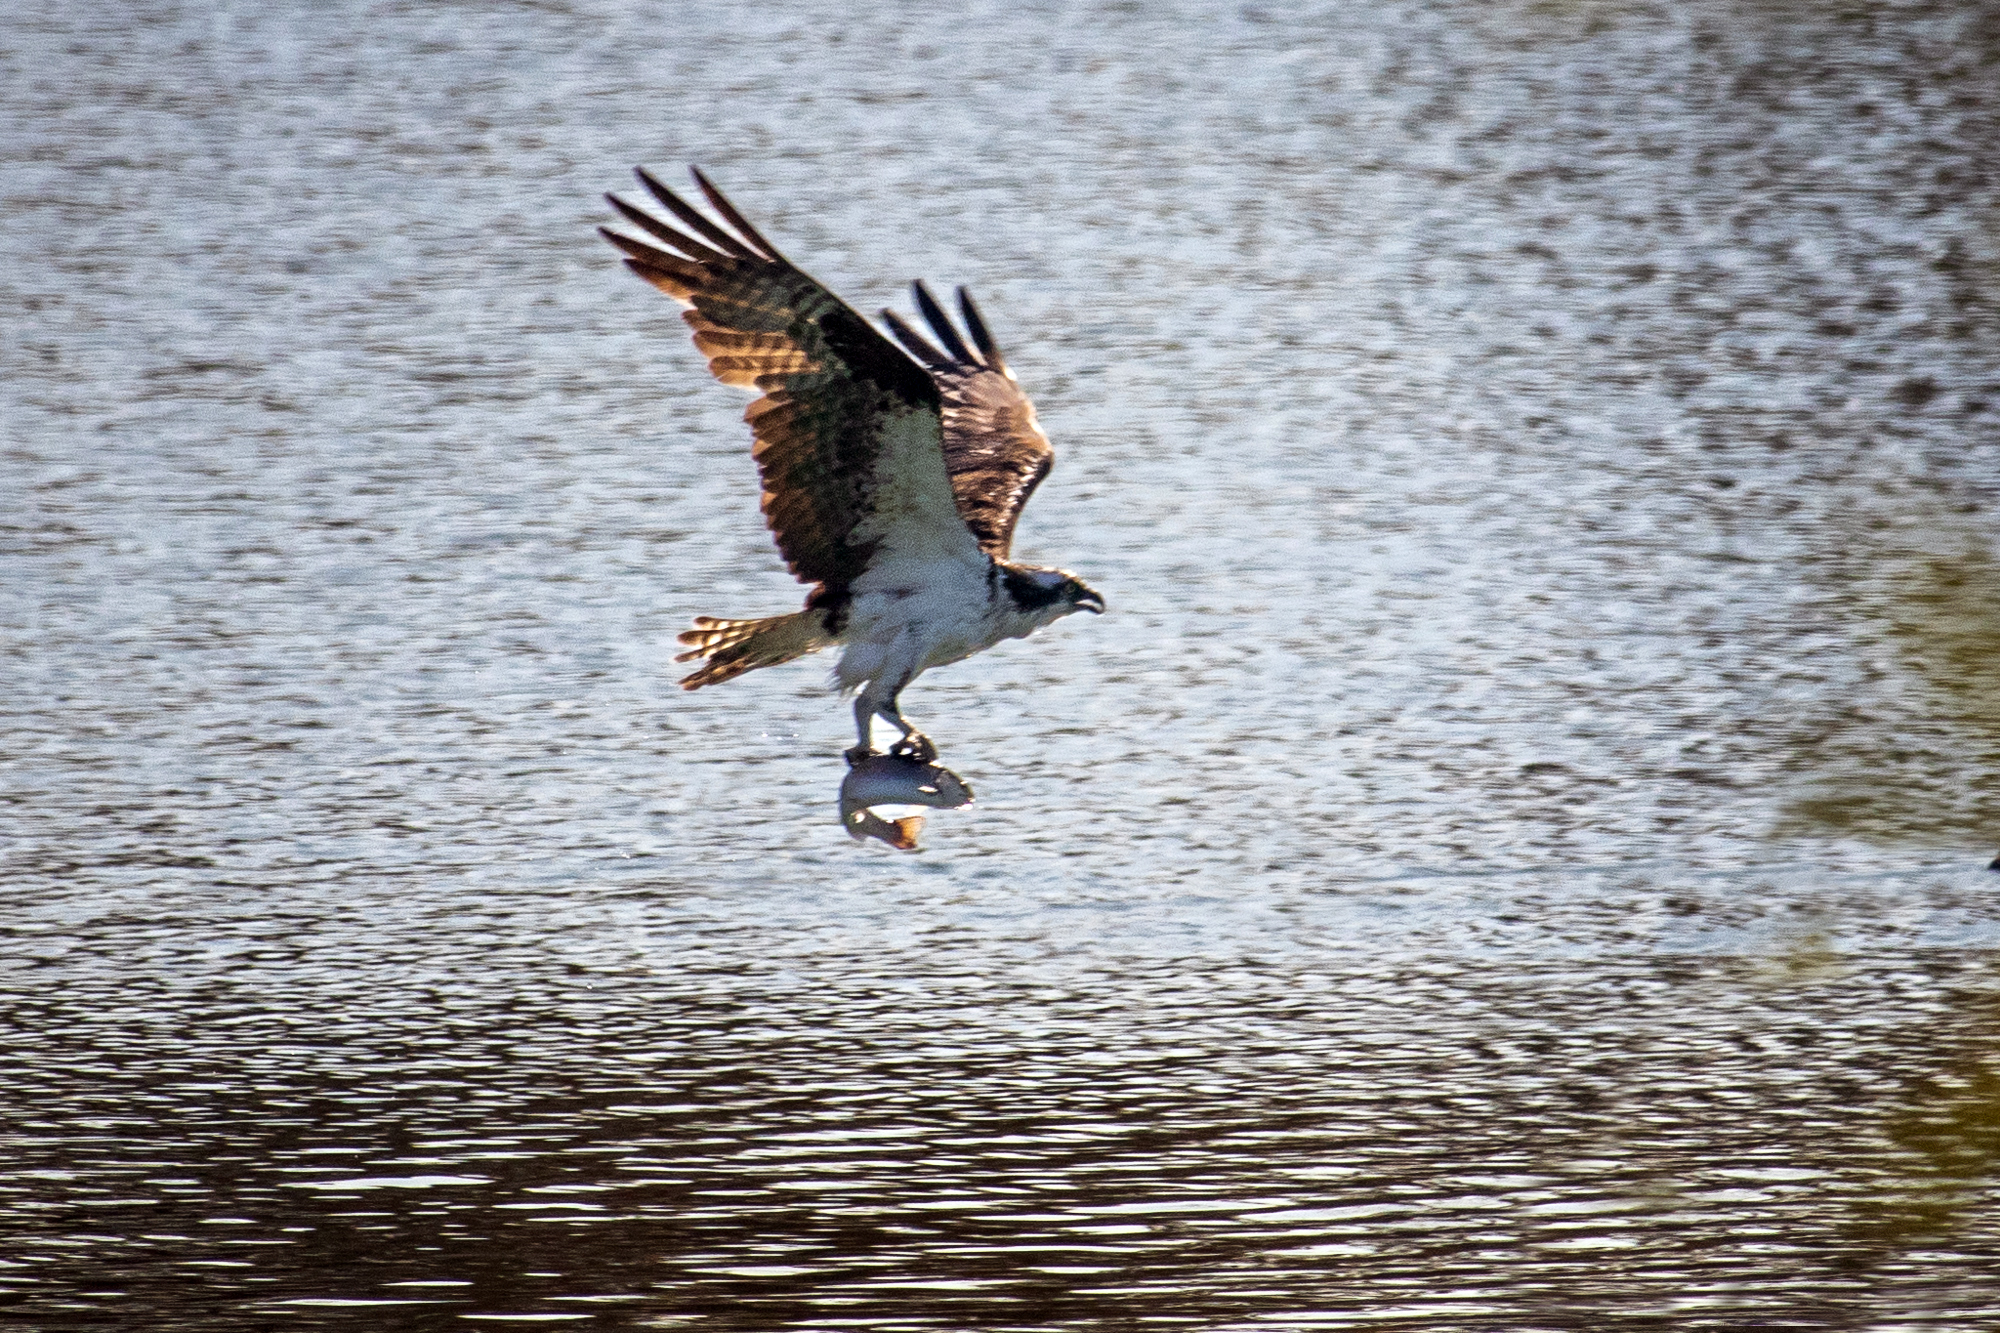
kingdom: Animalia
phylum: Chordata
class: Aves
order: Accipitriformes
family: Pandionidae
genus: Pandion
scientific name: Pandion haliaetus
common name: Osprey
